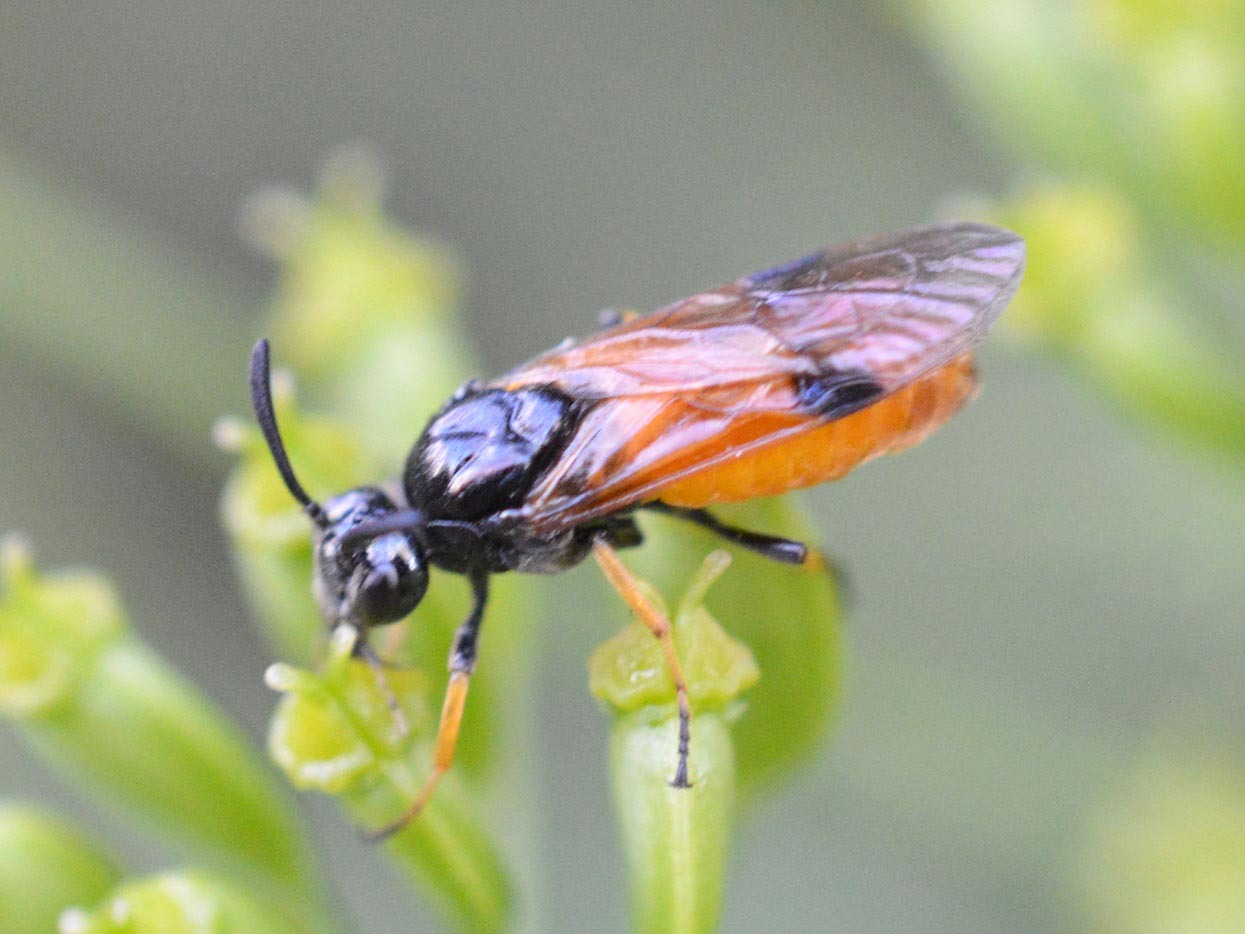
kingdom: Animalia
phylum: Arthropoda
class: Insecta
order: Hymenoptera
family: Argidae
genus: Arge
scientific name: Arge melanochra
